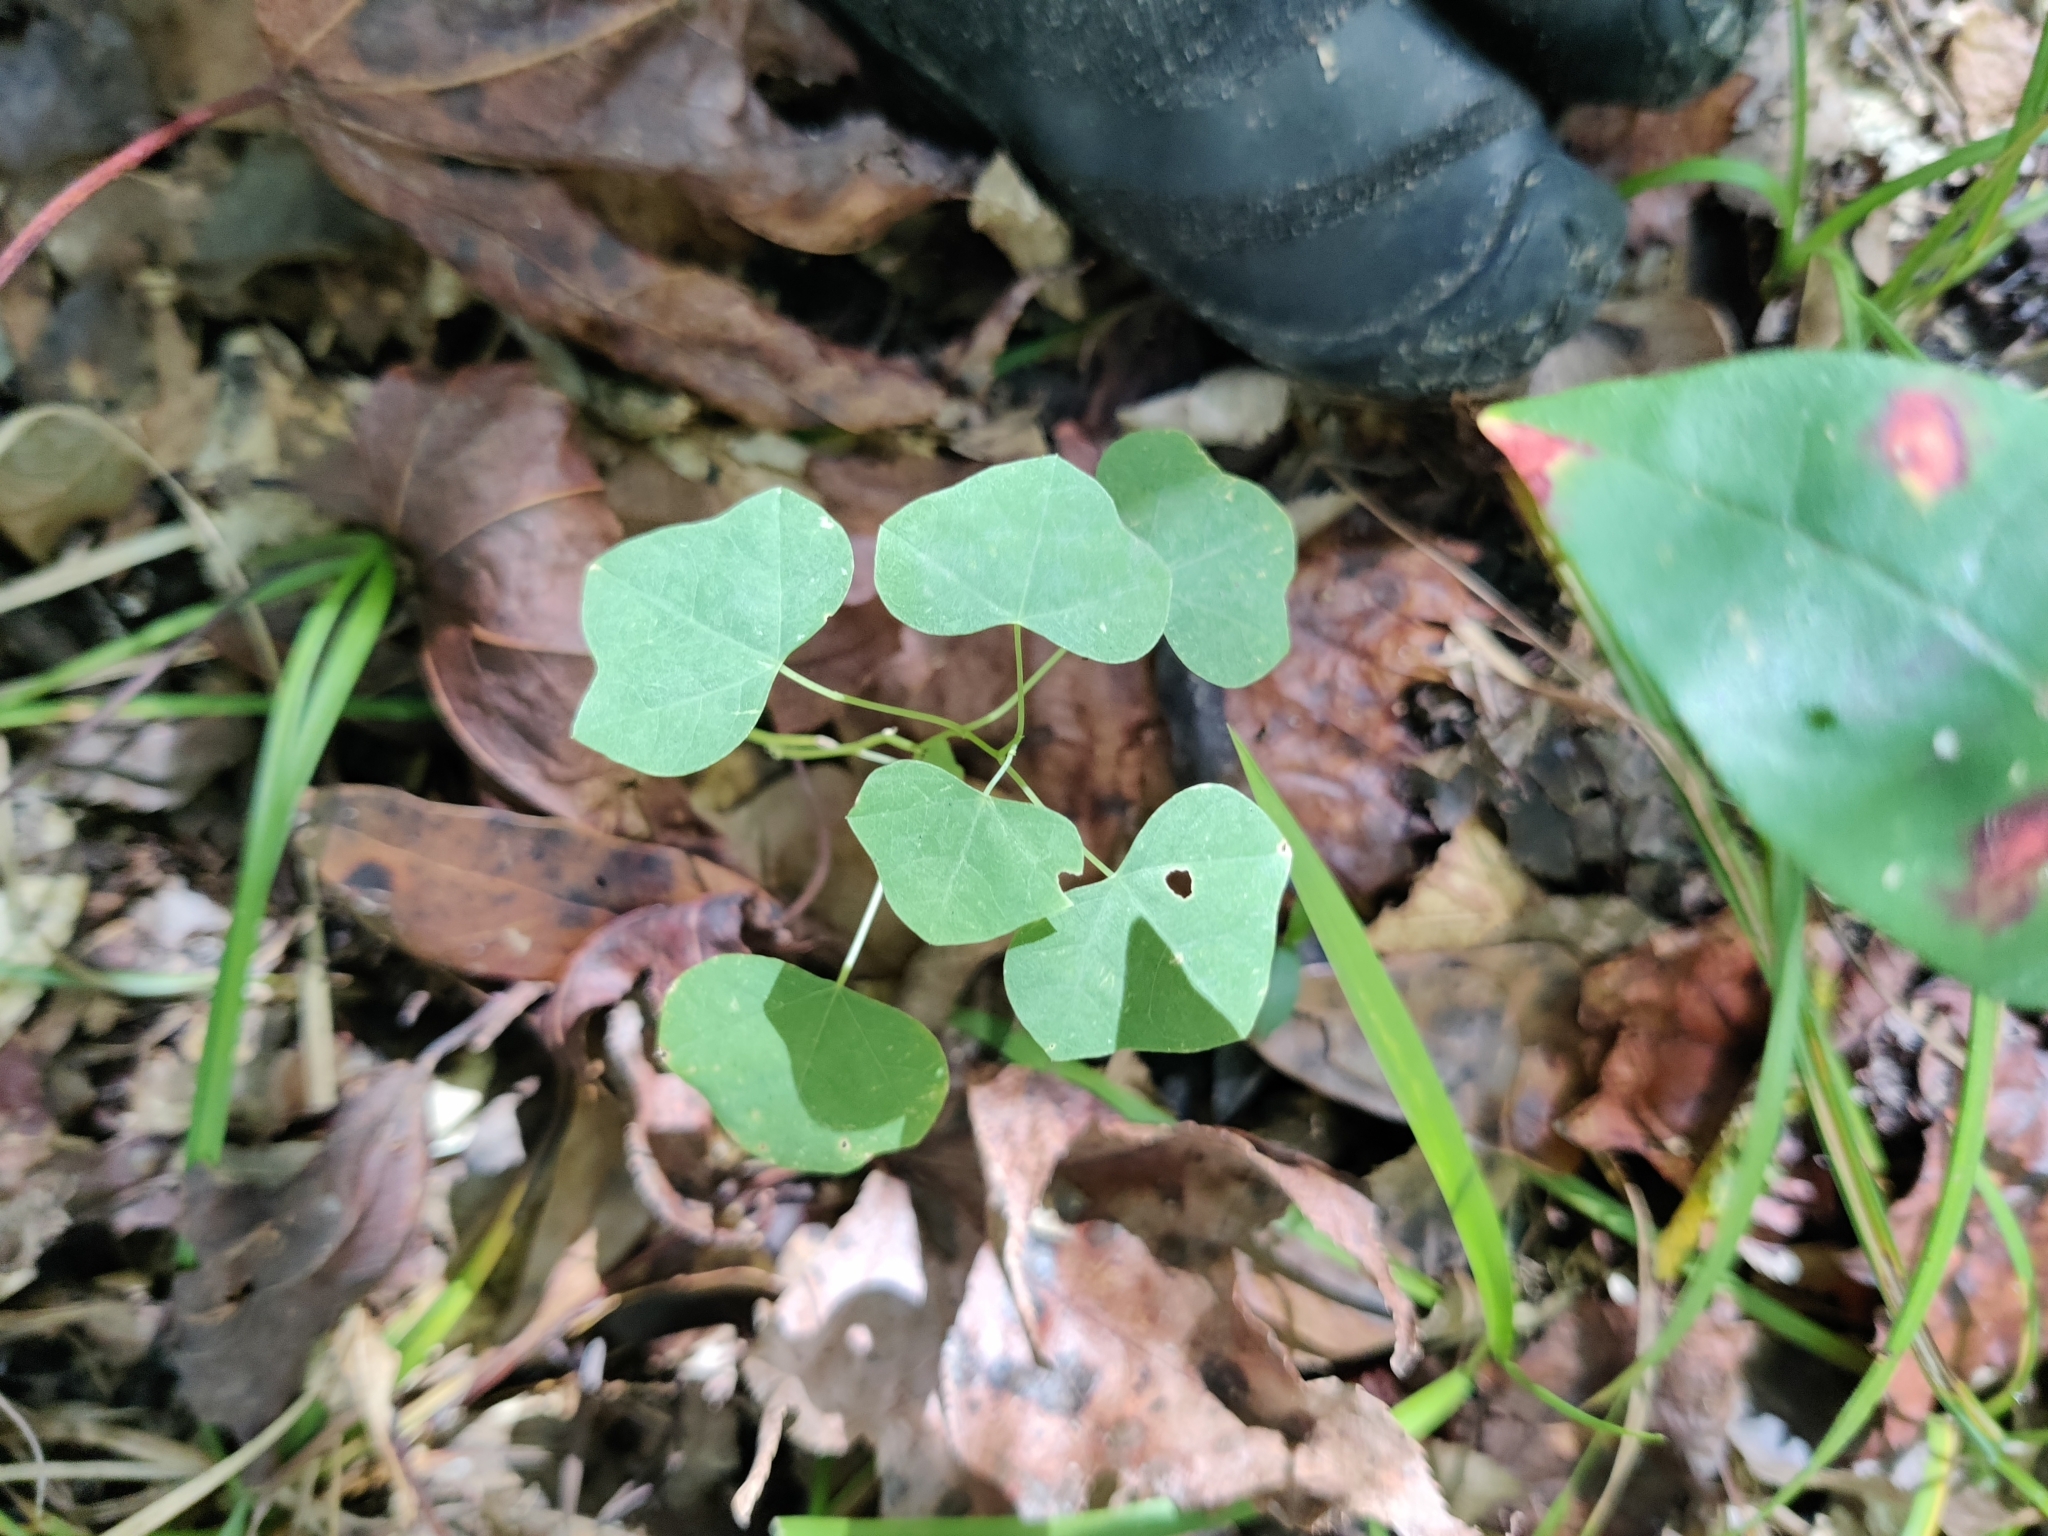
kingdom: Plantae
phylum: Tracheophyta
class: Magnoliopsida
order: Malpighiales
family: Passifloraceae
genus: Passiflora
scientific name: Passiflora lutea
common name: Yellow passionflower
